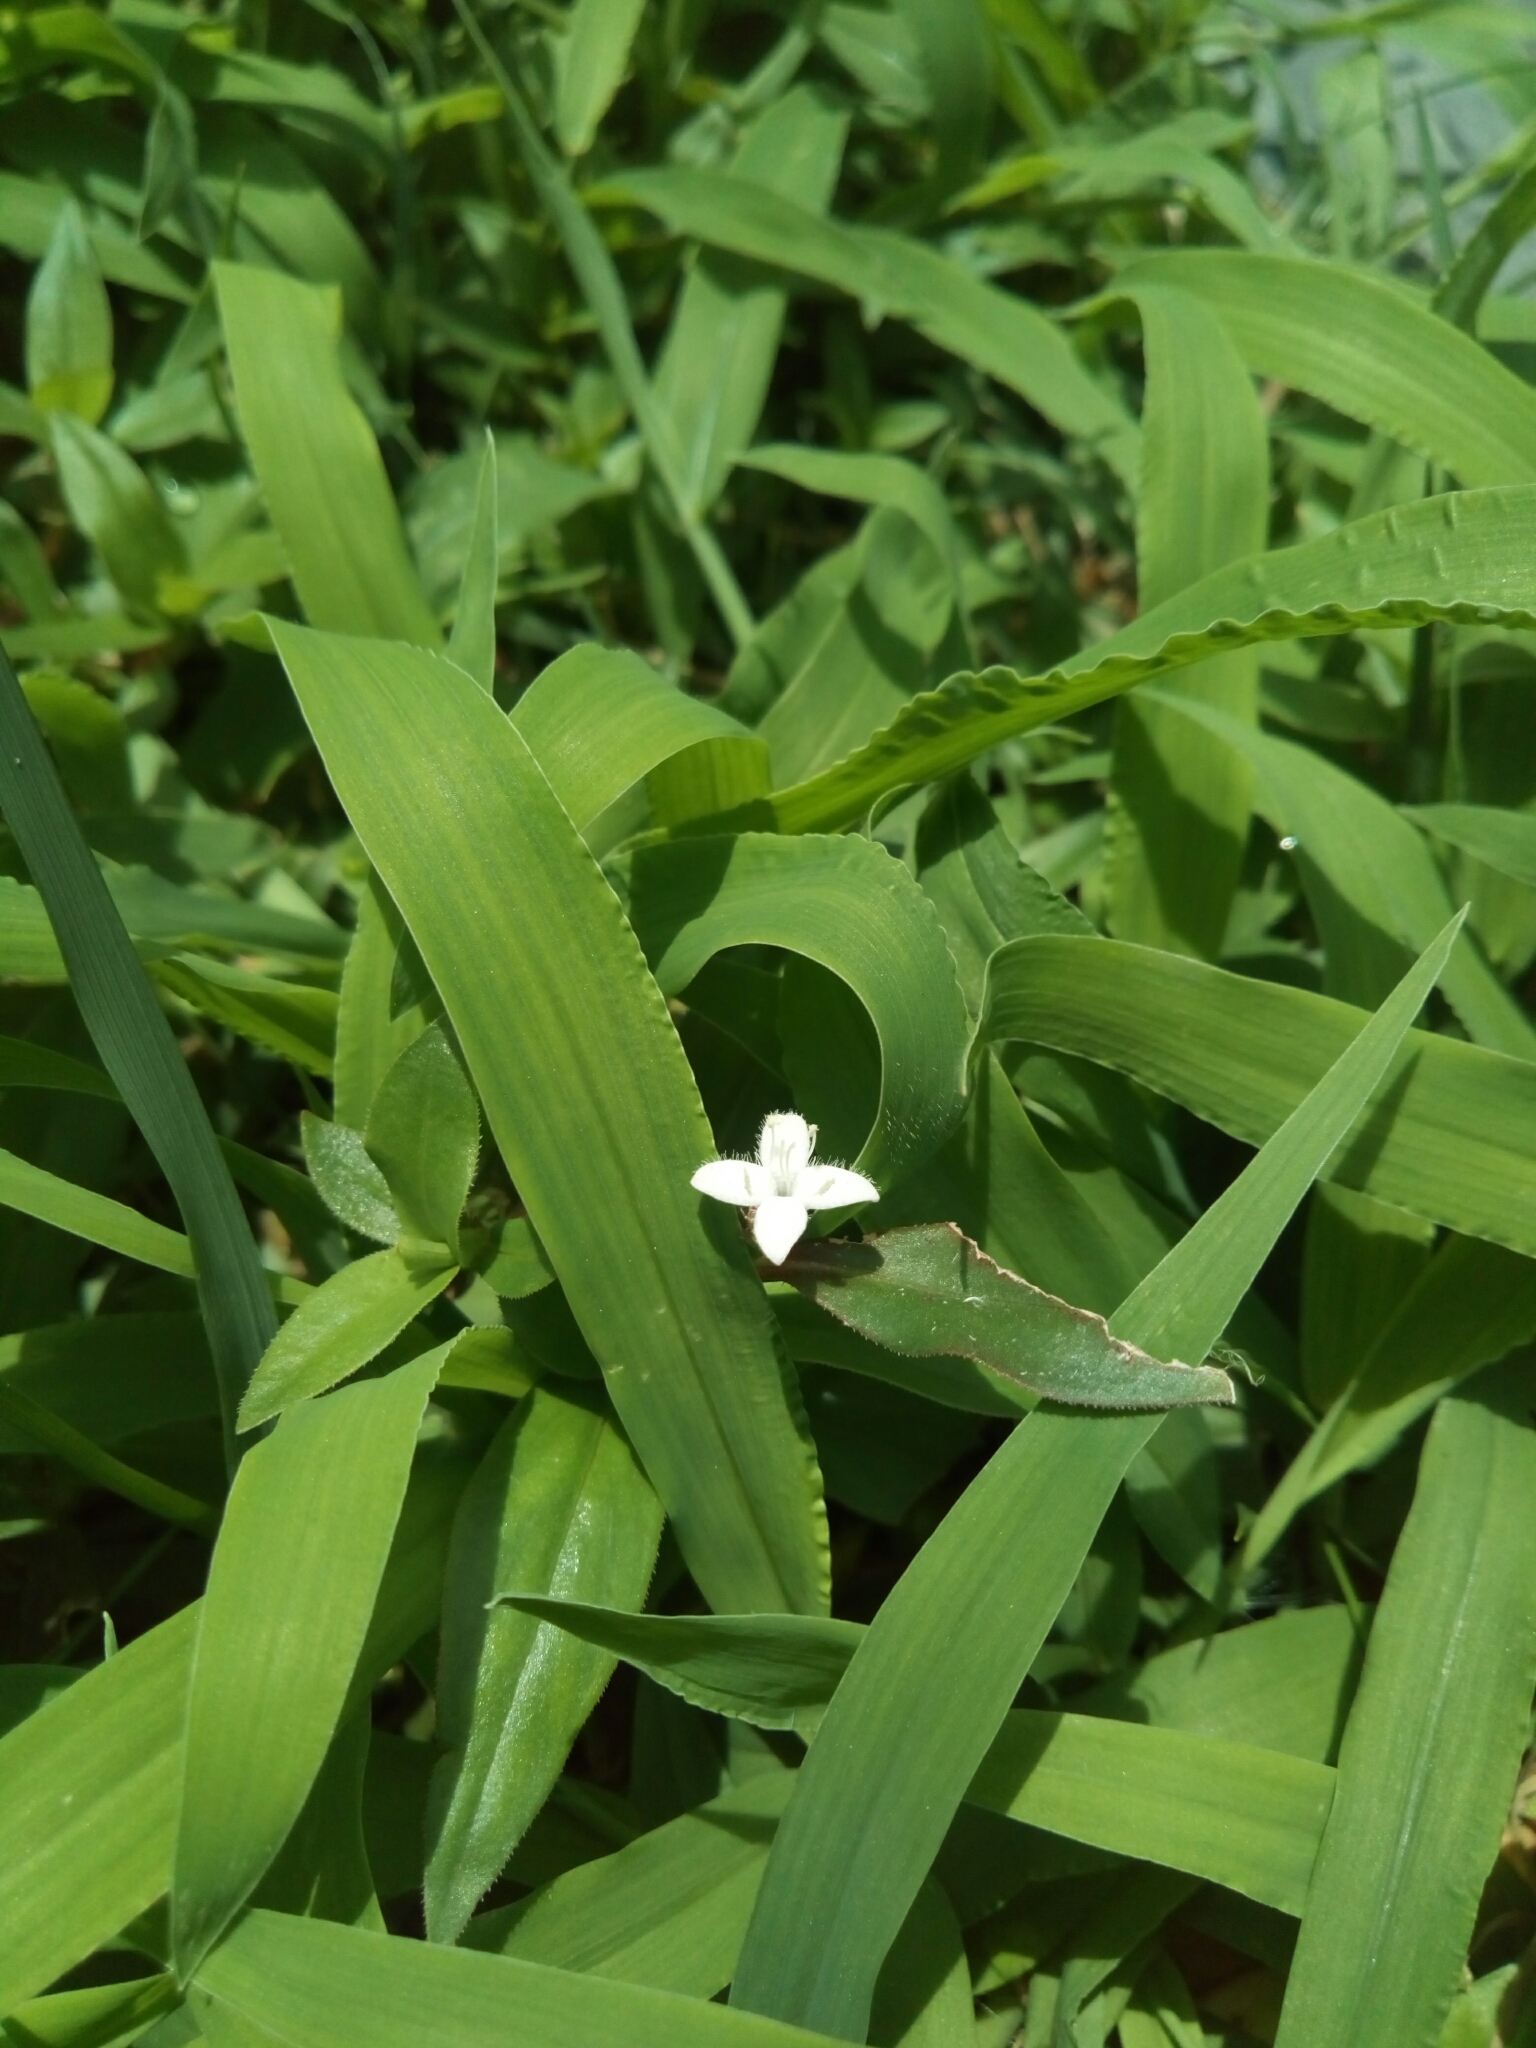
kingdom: Plantae
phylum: Tracheophyta
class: Magnoliopsida
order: Gentianales
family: Rubiaceae
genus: Diodia
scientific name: Diodia virginiana
